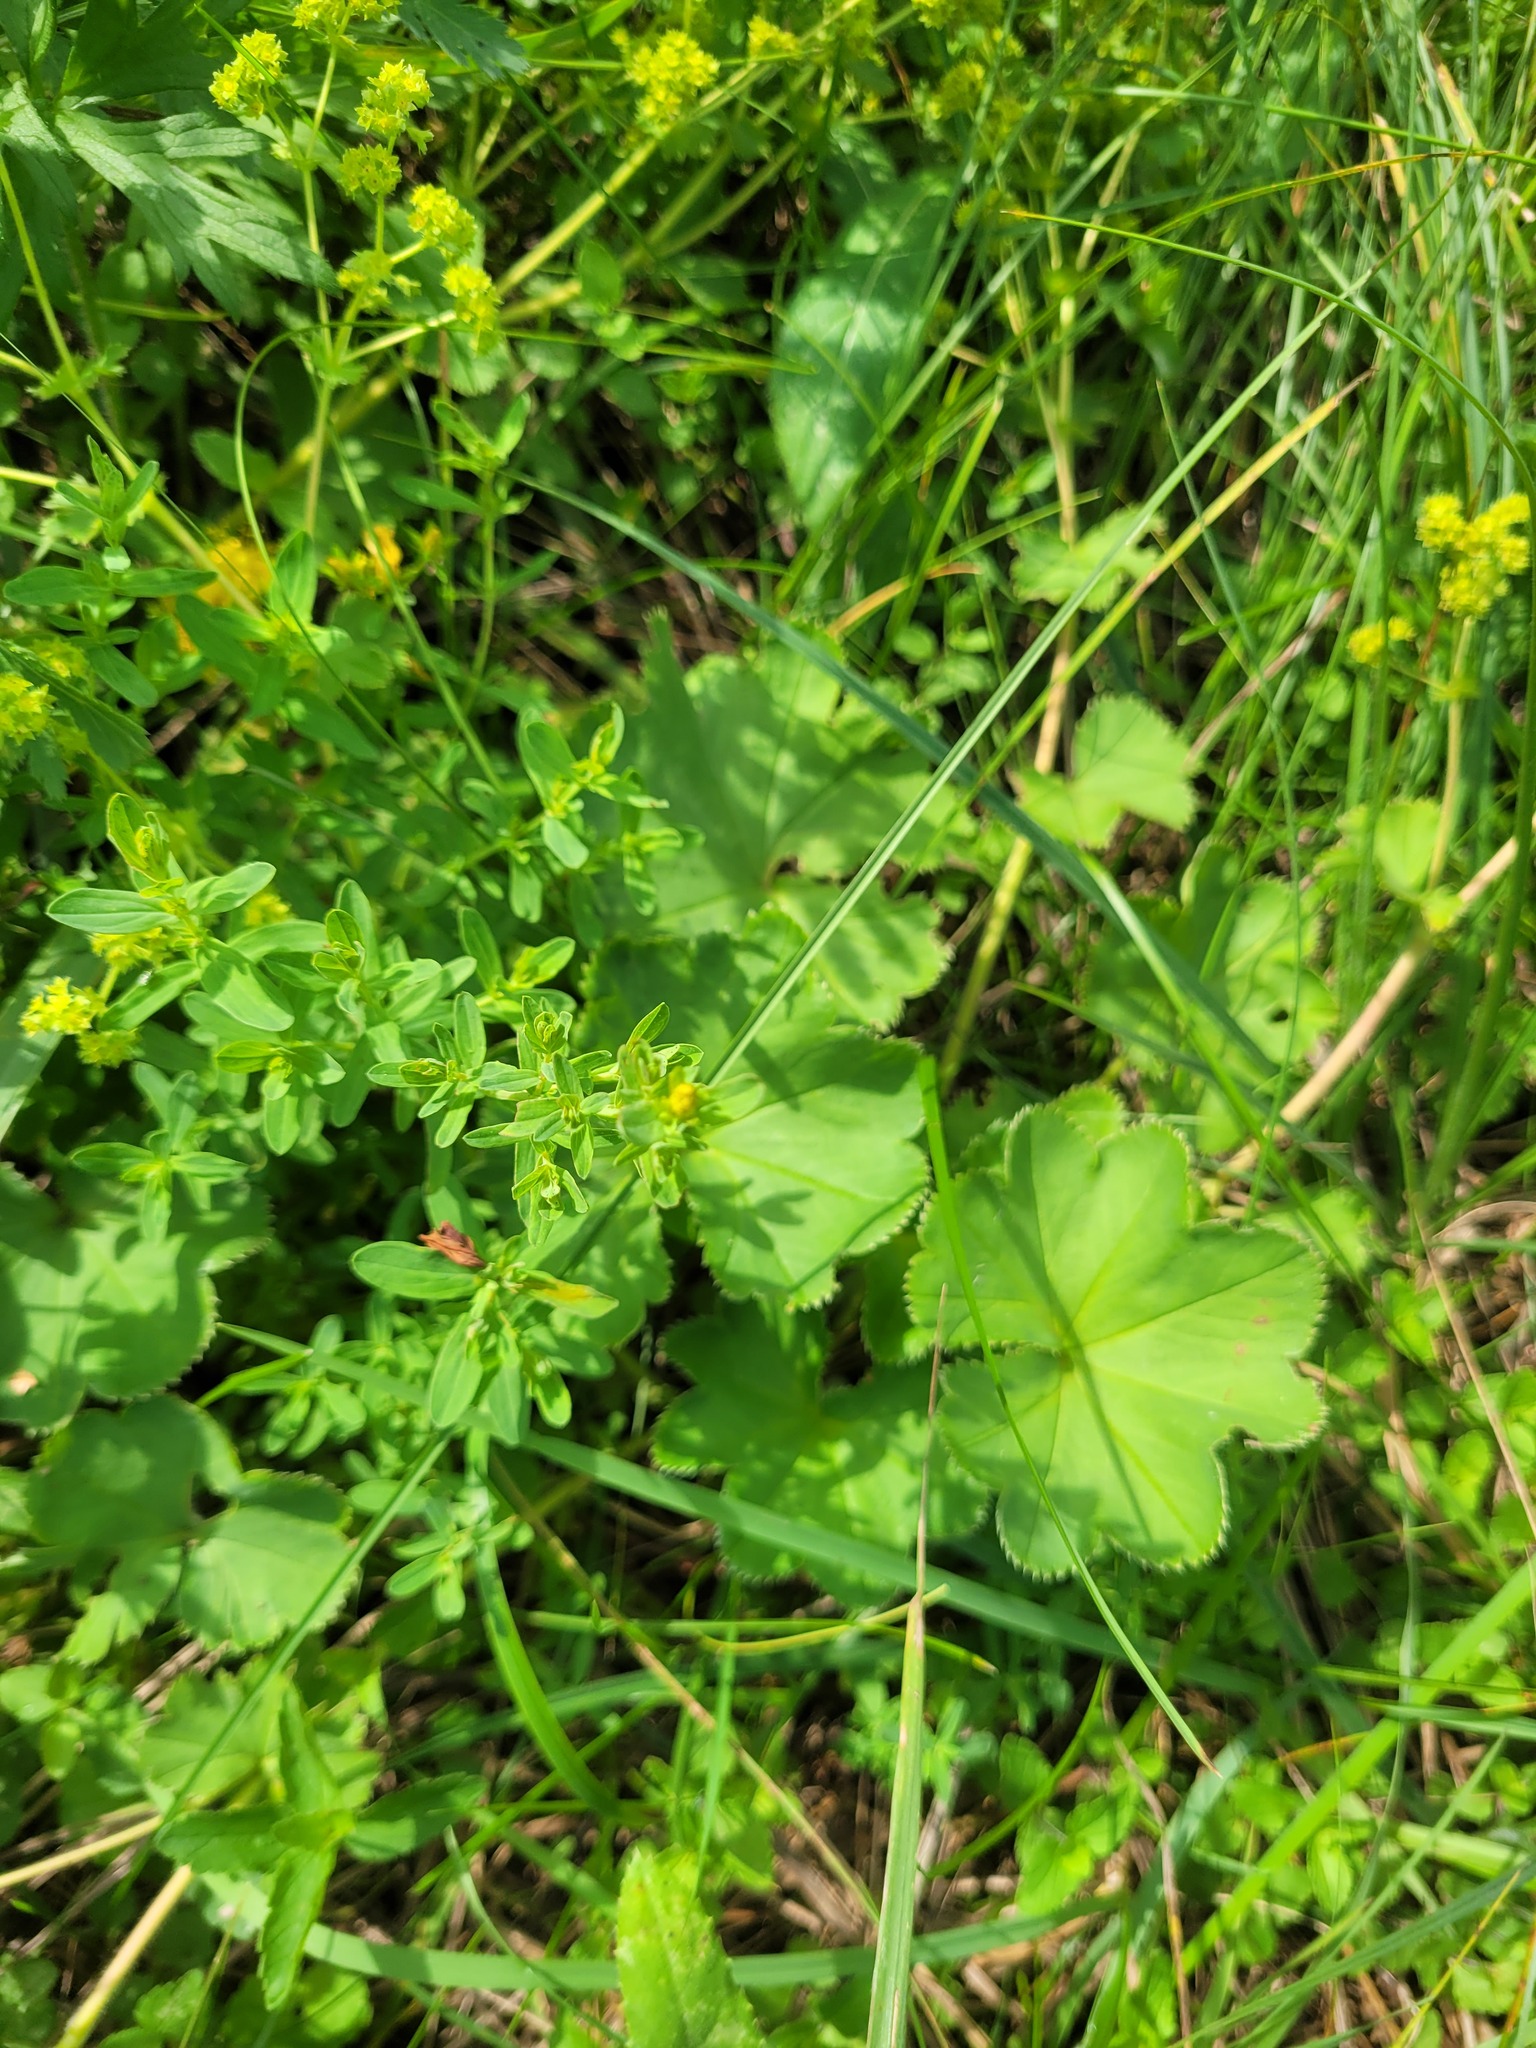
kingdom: Plantae
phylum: Tracheophyta
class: Magnoliopsida
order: Malpighiales
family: Hypericaceae
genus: Hypericum
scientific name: Hypericum perforatum
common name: Common st. johnswort
